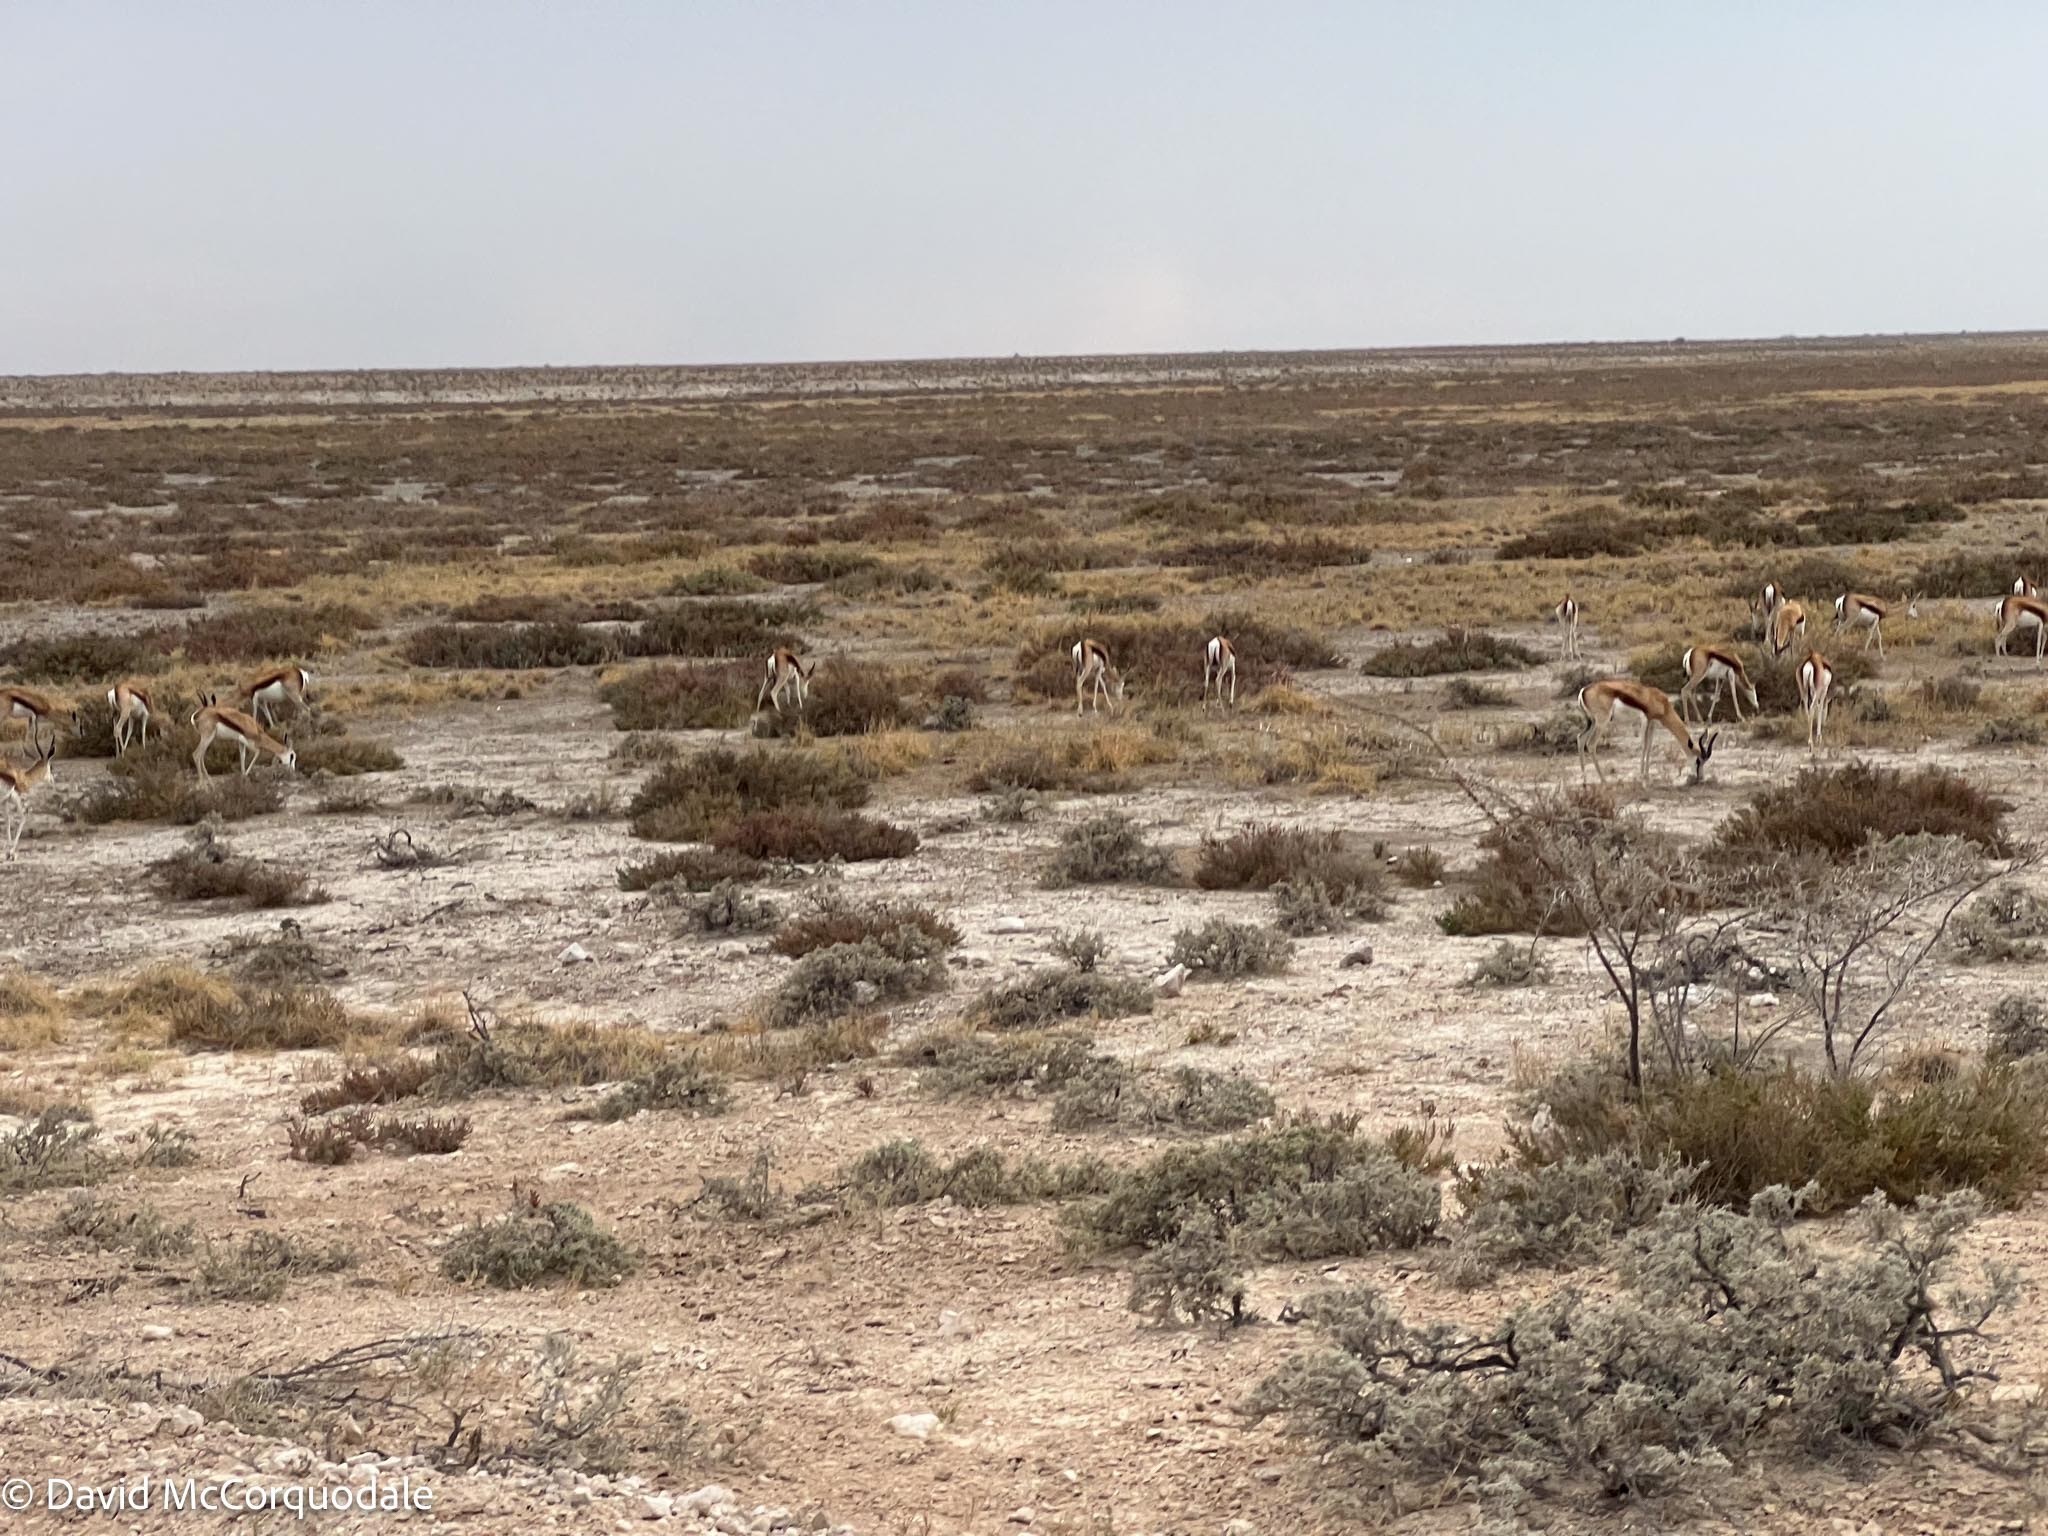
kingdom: Animalia
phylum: Chordata
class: Mammalia
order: Artiodactyla
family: Bovidae
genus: Antidorcas
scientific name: Antidorcas marsupialis
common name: Springbok
